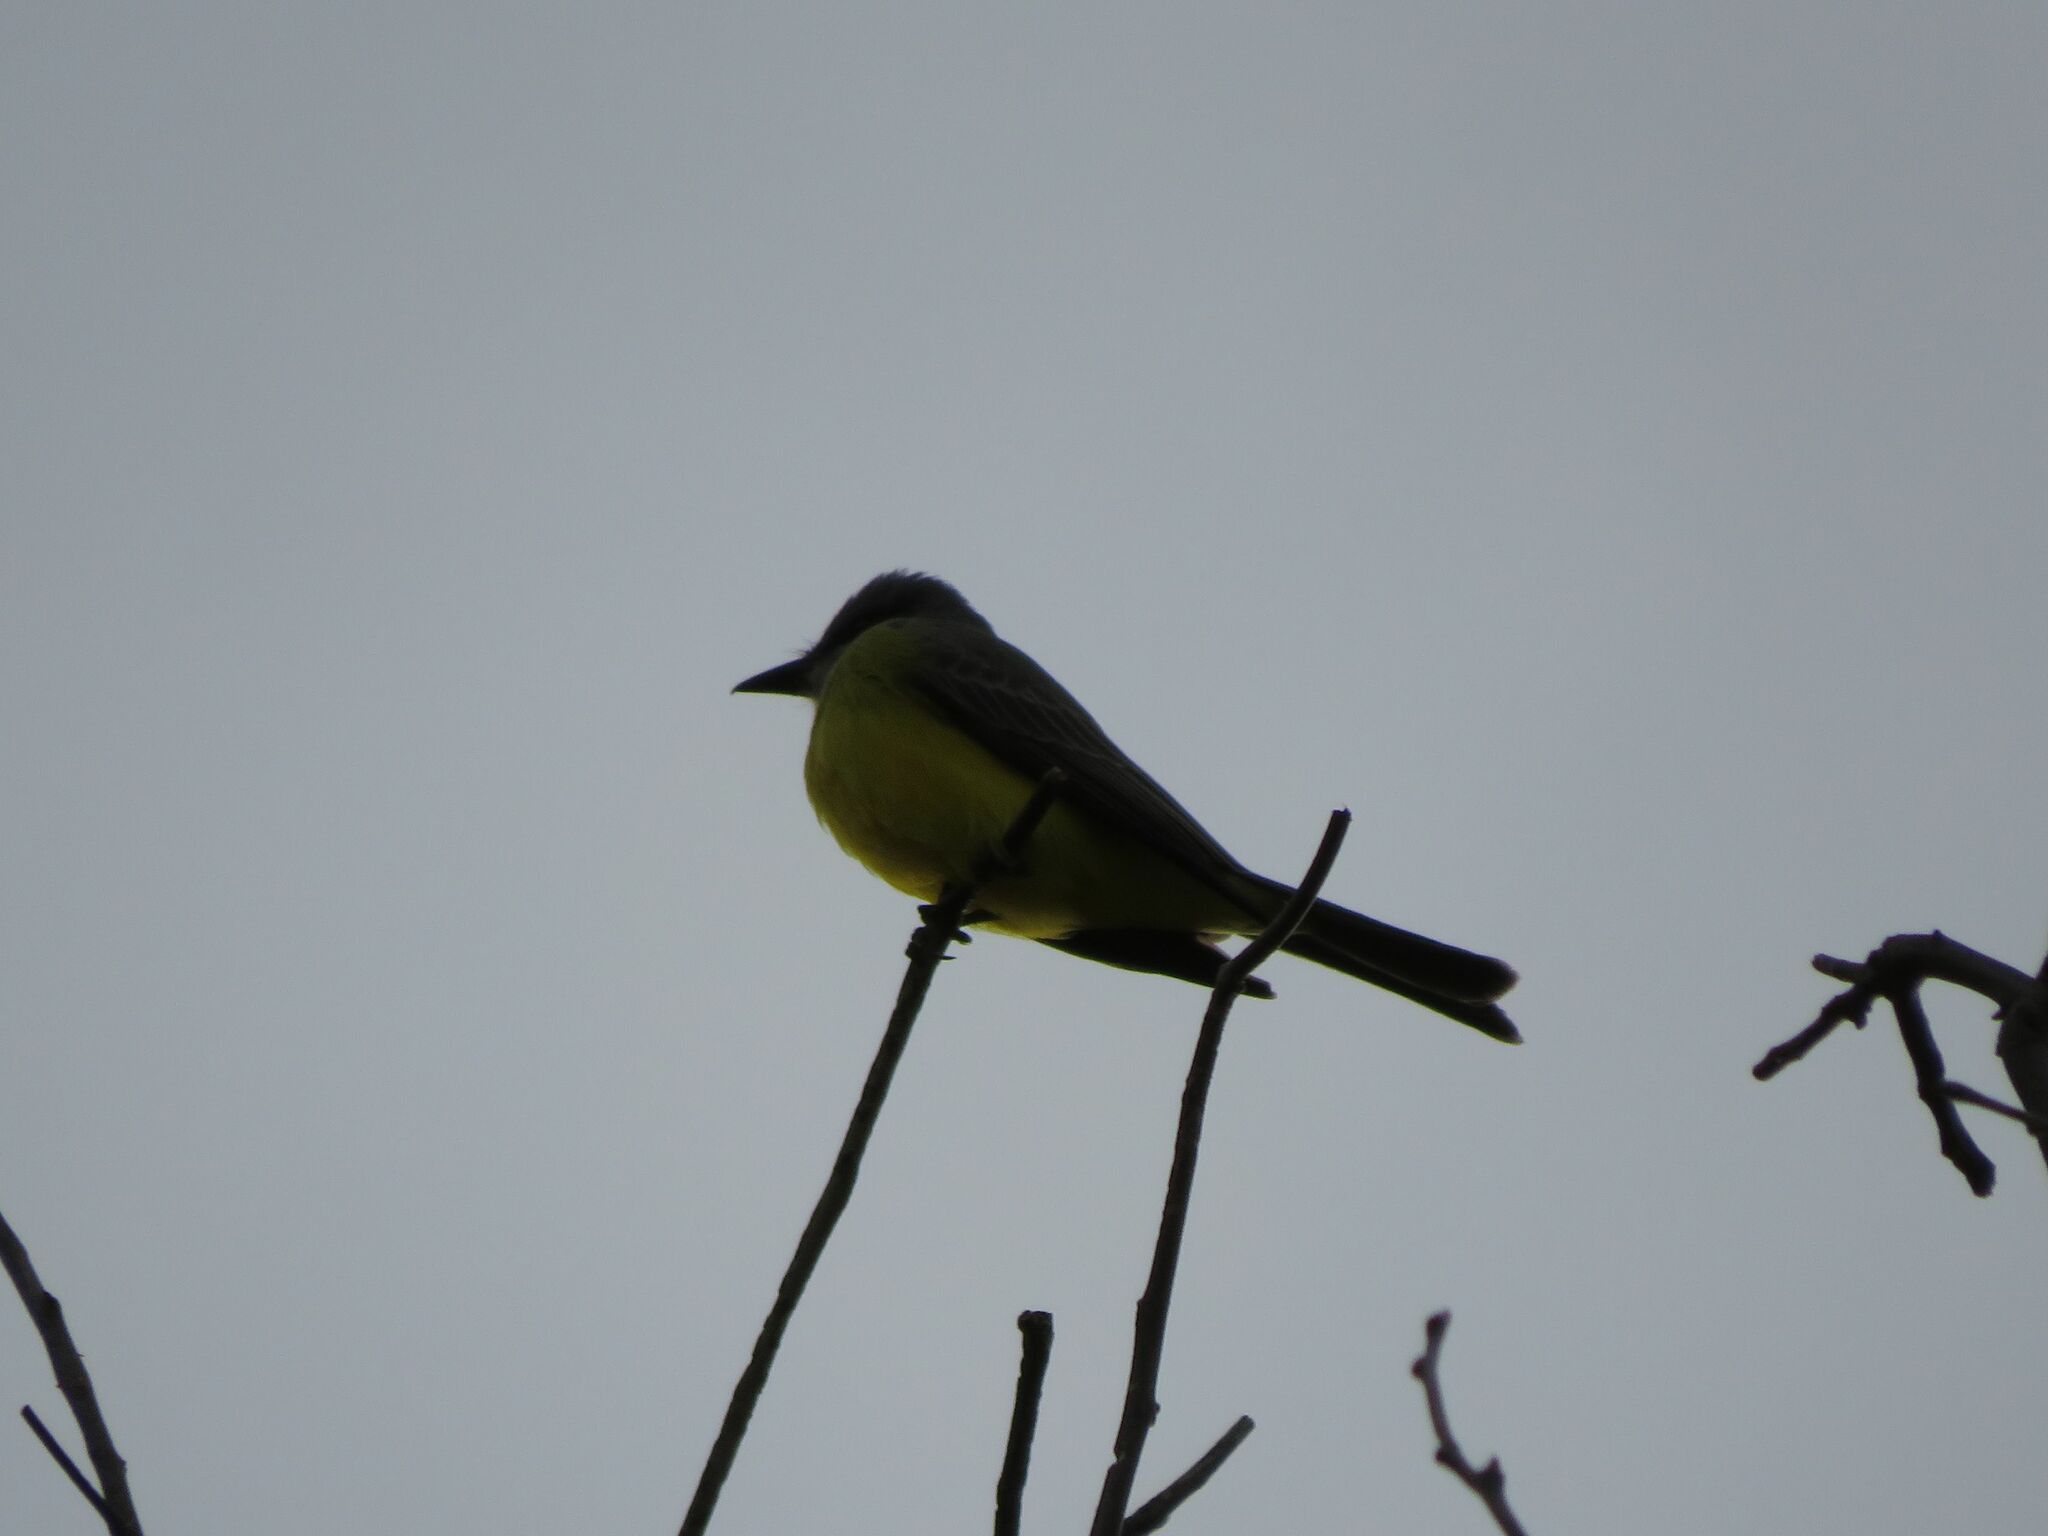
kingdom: Animalia
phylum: Chordata
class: Aves
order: Passeriformes
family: Tyrannidae
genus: Tyrannus
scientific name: Tyrannus melancholicus
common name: Tropical kingbird
